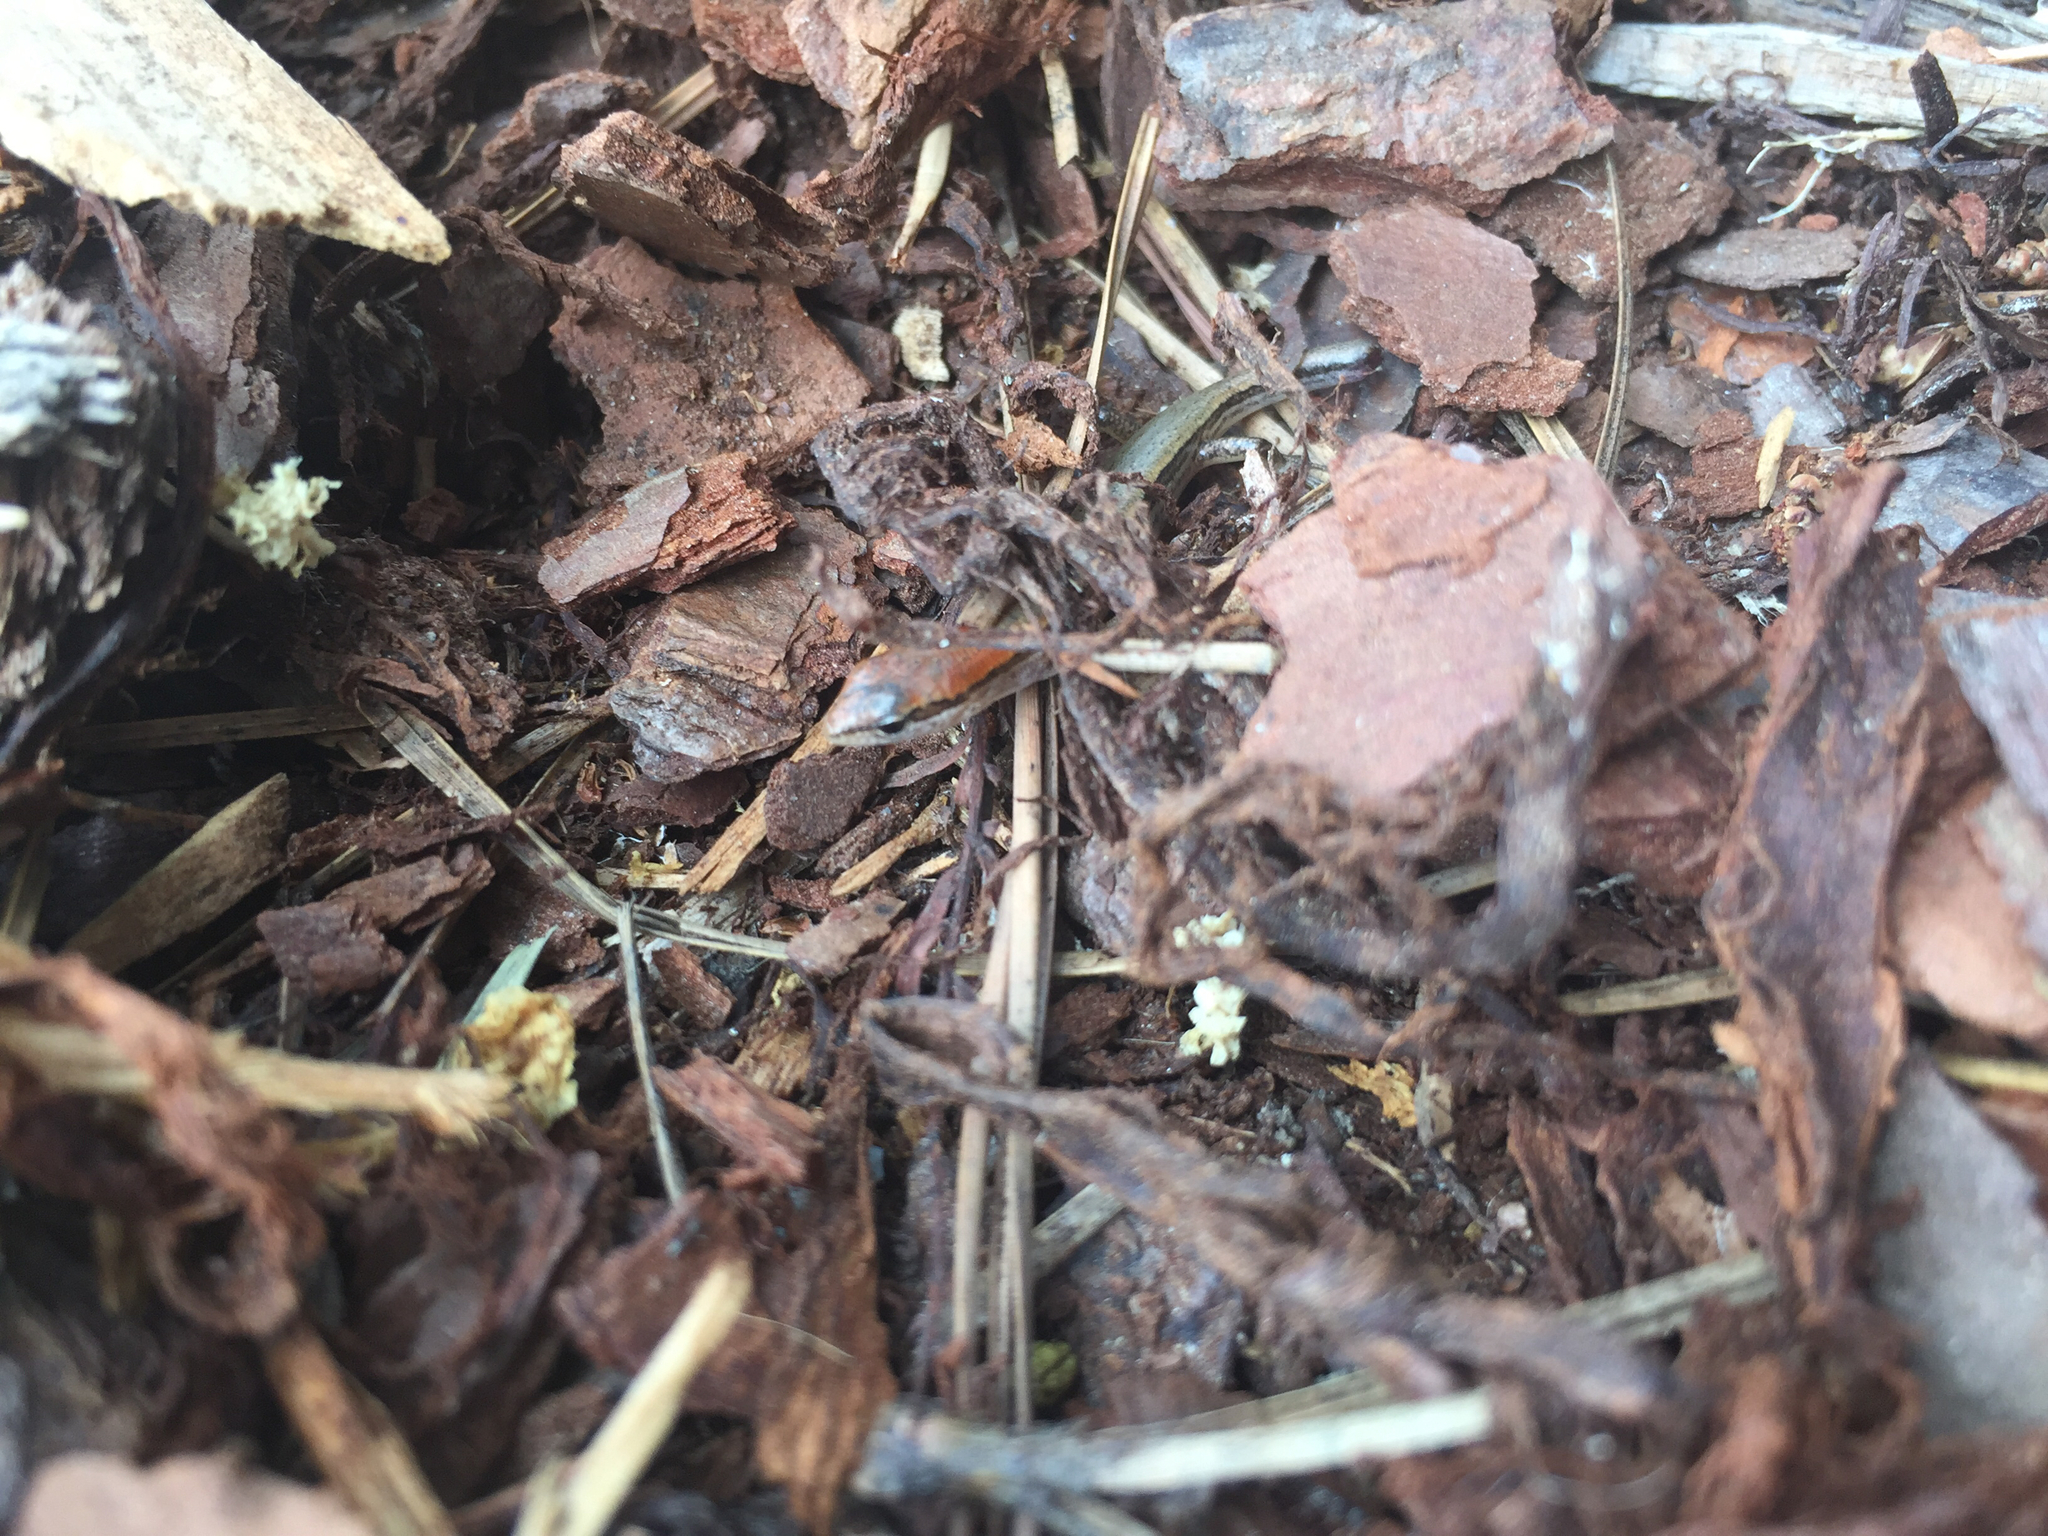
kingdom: Animalia
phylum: Chordata
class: Squamata
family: Scincidae
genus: Scincella
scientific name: Scincella lateralis
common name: Ground skink
